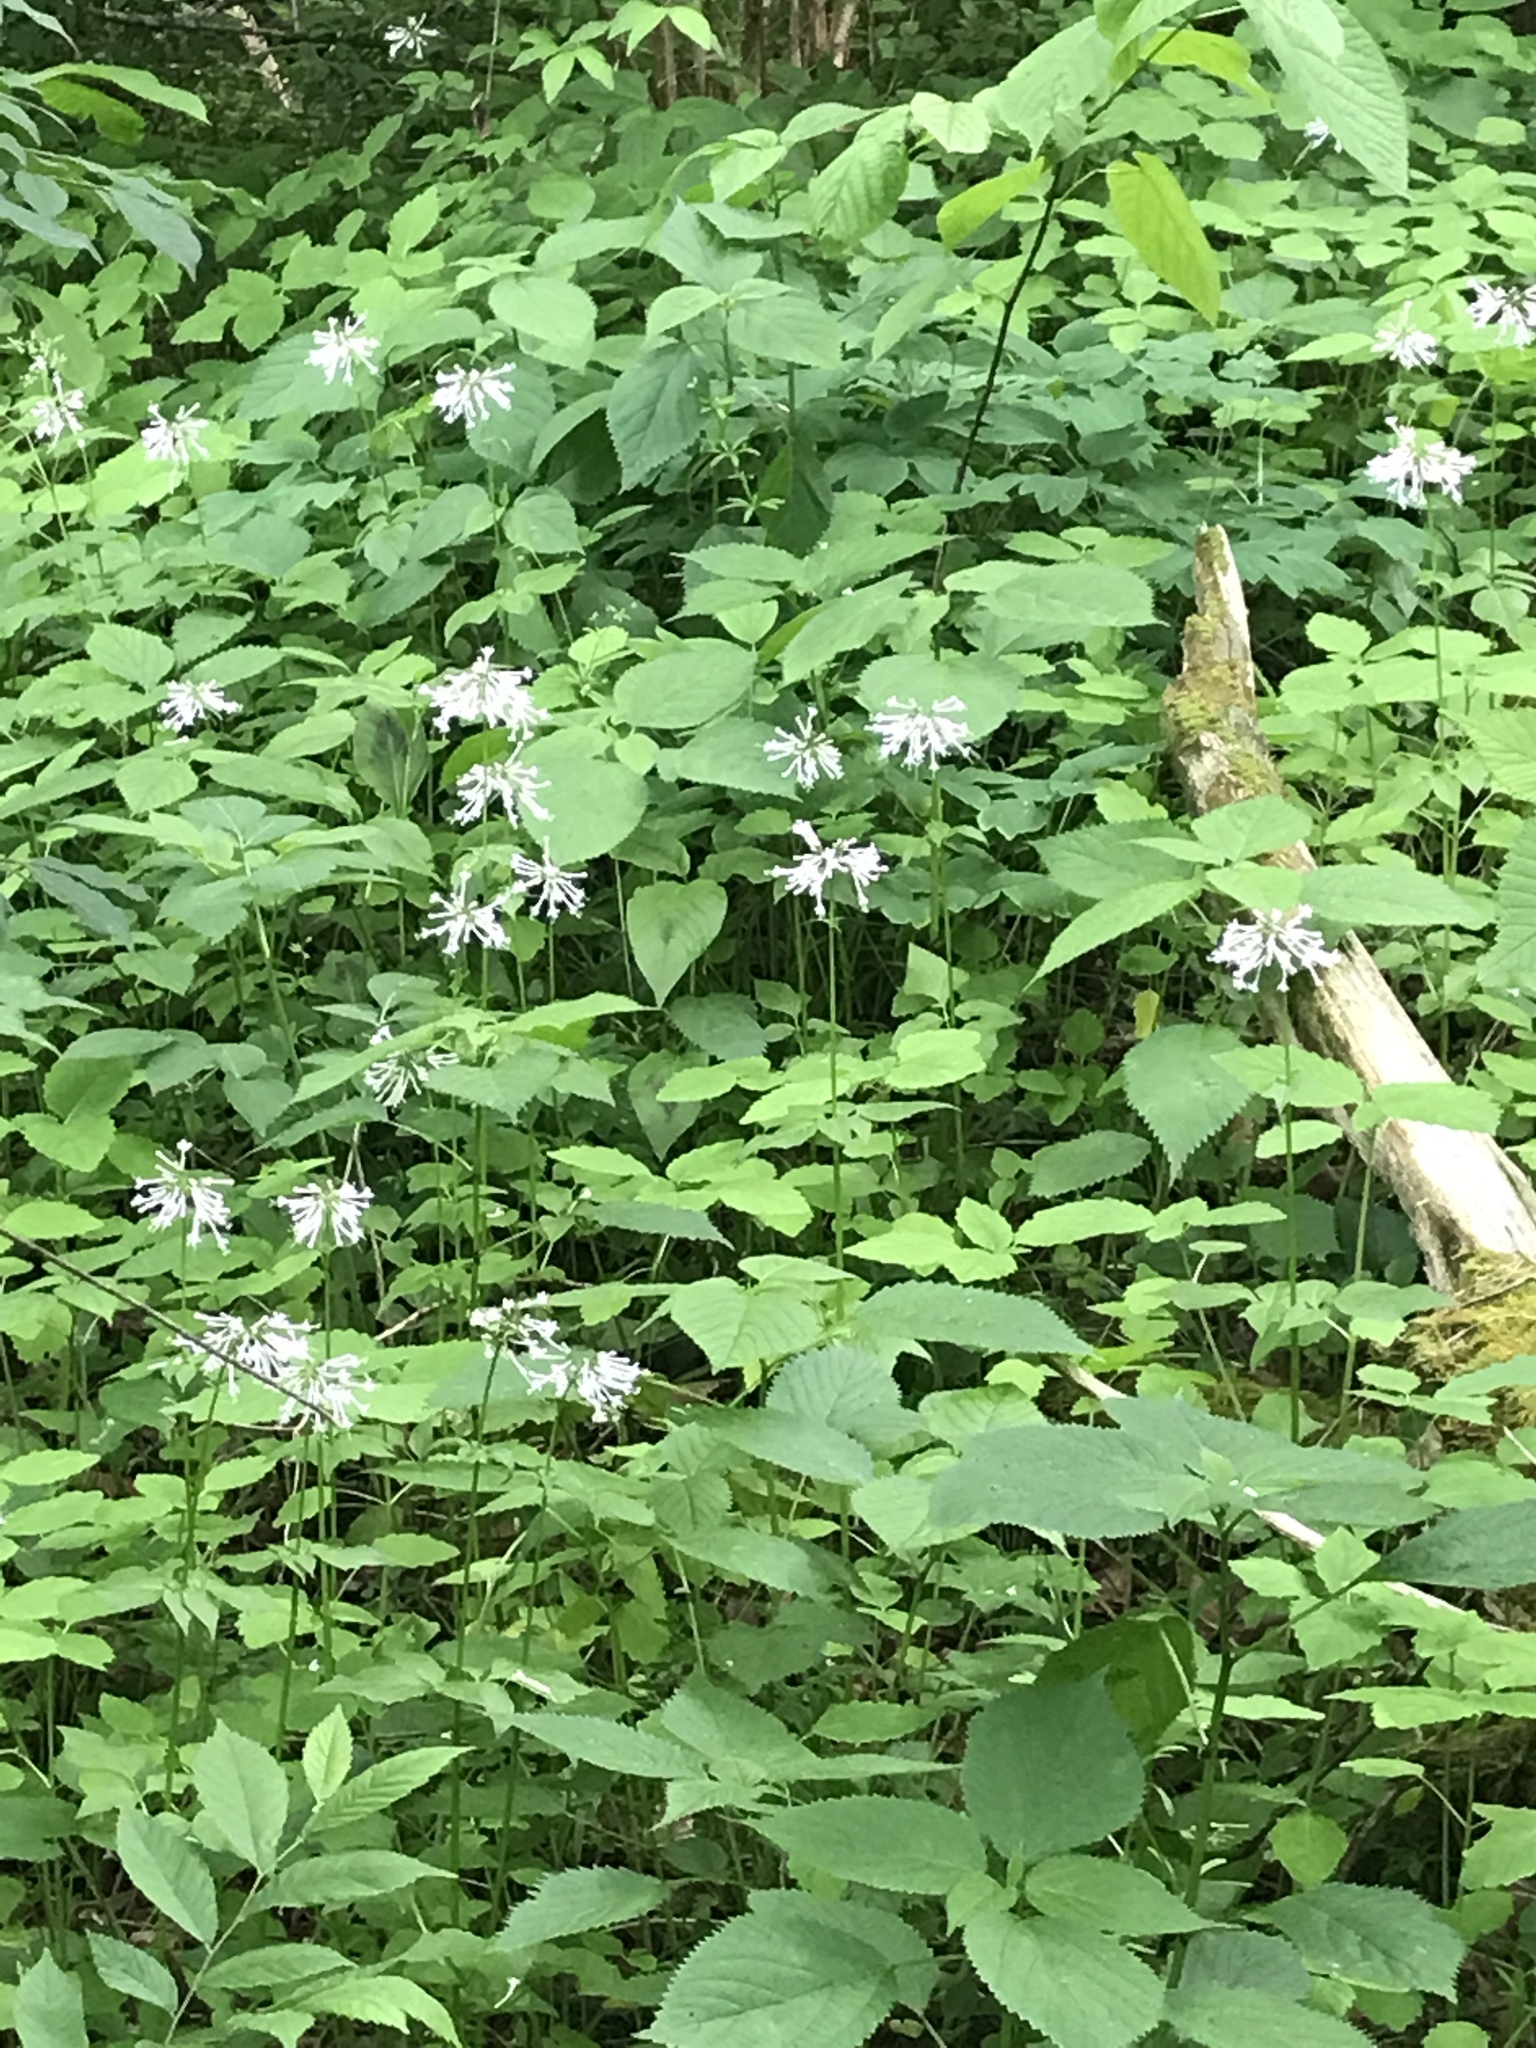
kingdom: Plantae
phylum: Tracheophyta
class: Magnoliopsida
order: Dipsacales
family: Caprifoliaceae
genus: Valeriana
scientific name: Valeriana pauciflora
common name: Long-tube valeriana
